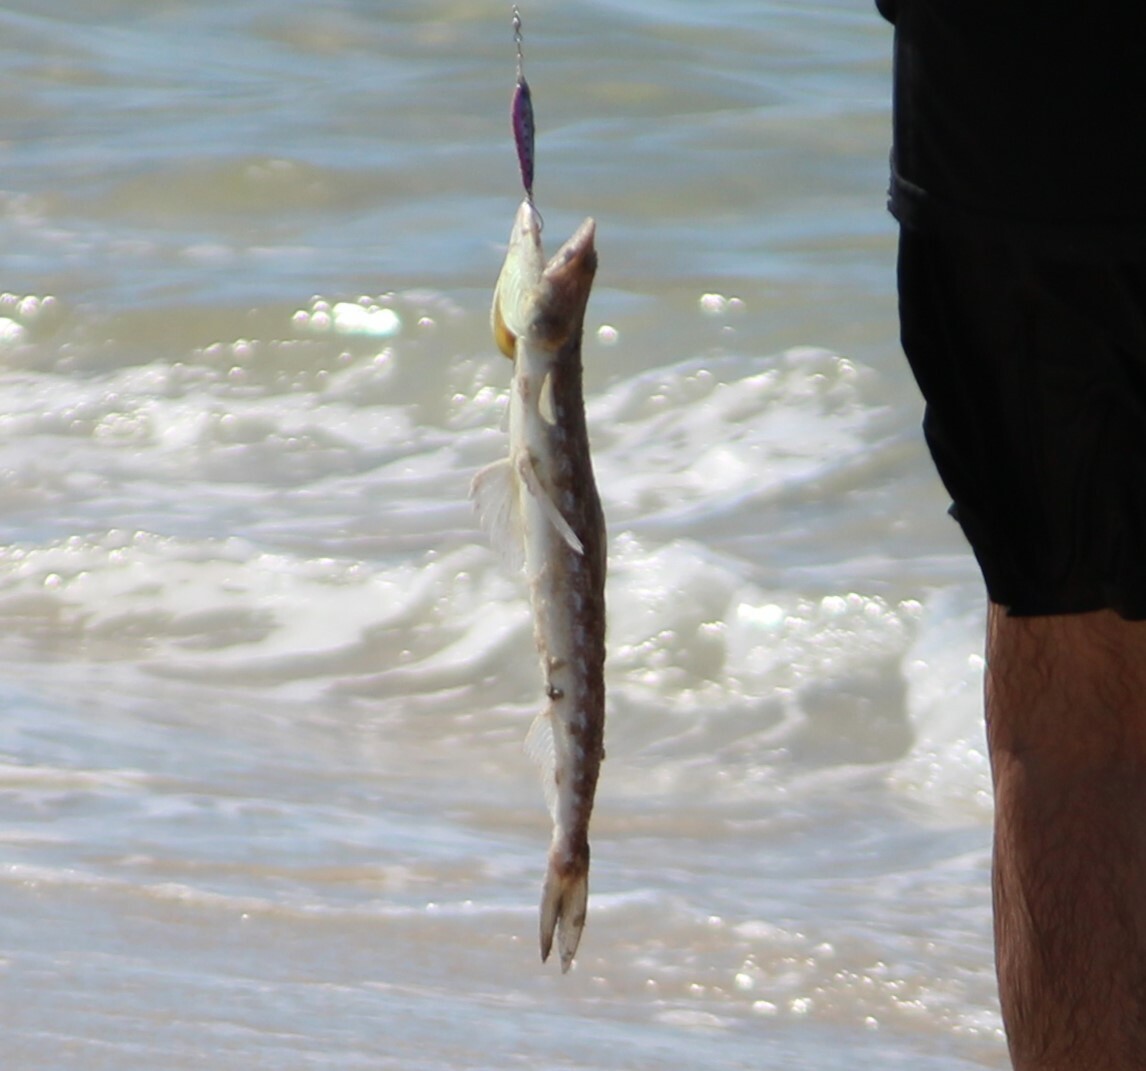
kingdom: Animalia
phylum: Chordata
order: Aulopiformes
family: Synodontidae
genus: Synodus
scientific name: Synodus foetens
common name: Inshore lizardfish
